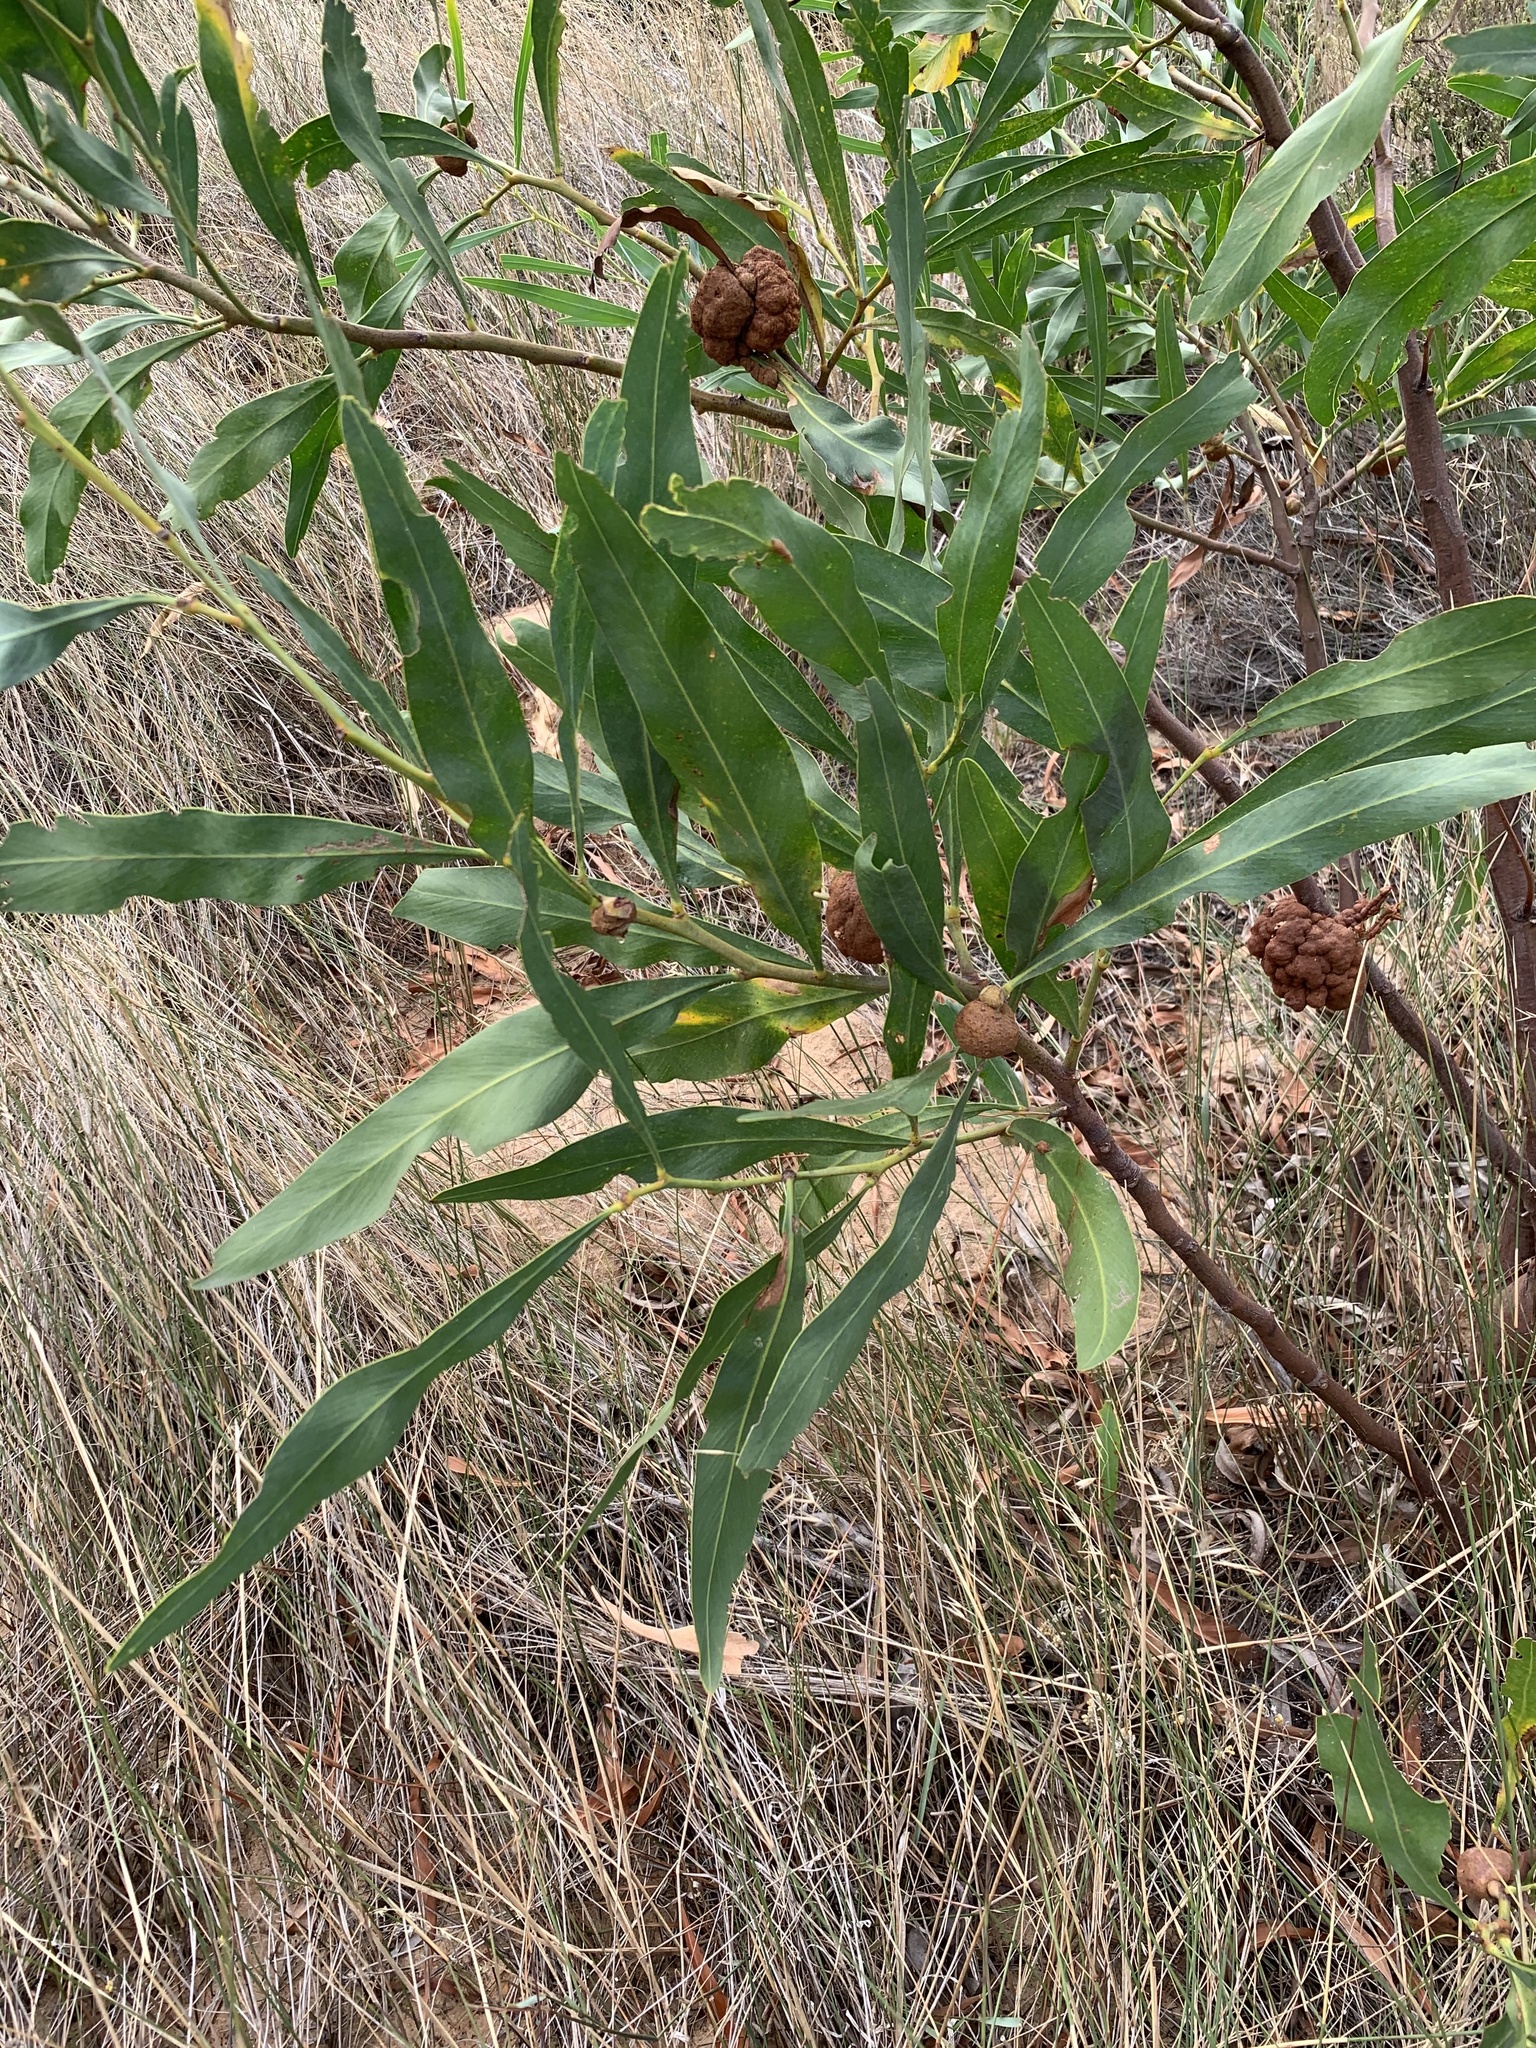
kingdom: Plantae
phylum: Tracheophyta
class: Magnoliopsida
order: Fabales
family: Fabaceae
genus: Acacia
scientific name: Acacia saligna
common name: Orange wattle
